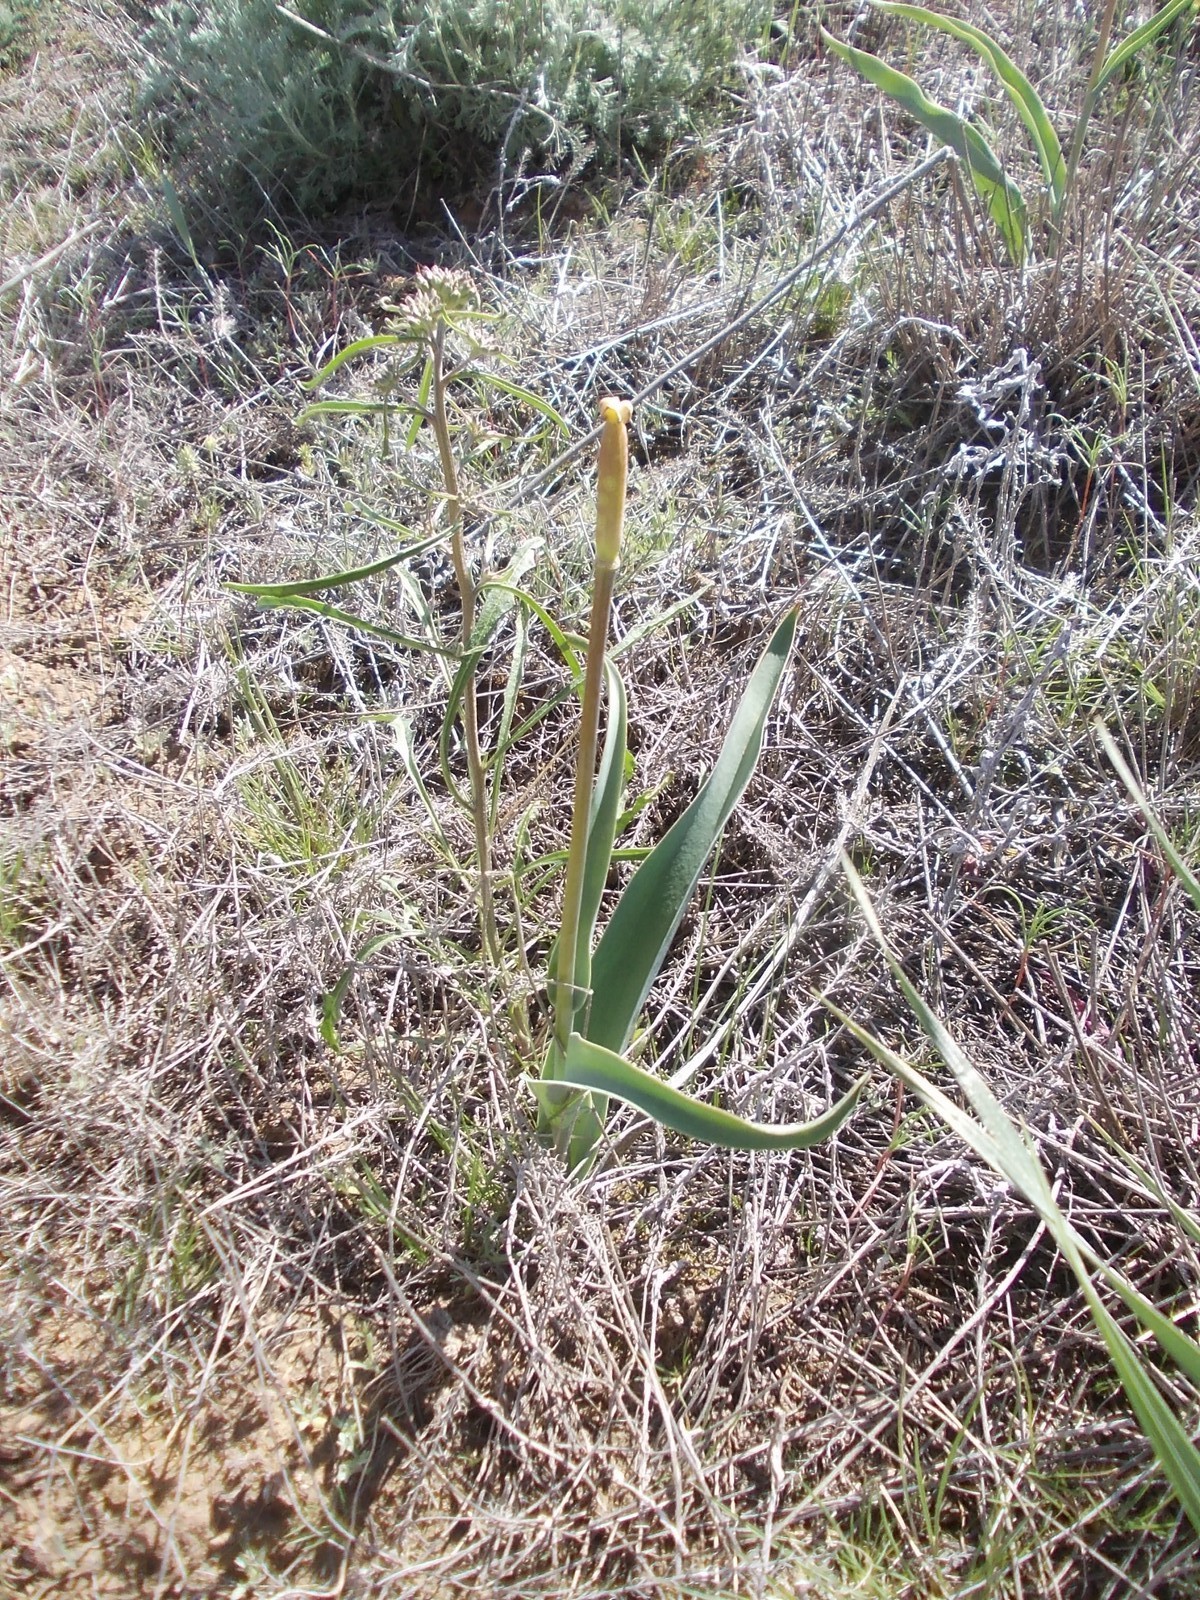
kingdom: Plantae
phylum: Tracheophyta
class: Liliopsida
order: Liliales
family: Liliaceae
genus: Tulipa
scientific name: Tulipa suaveolens
